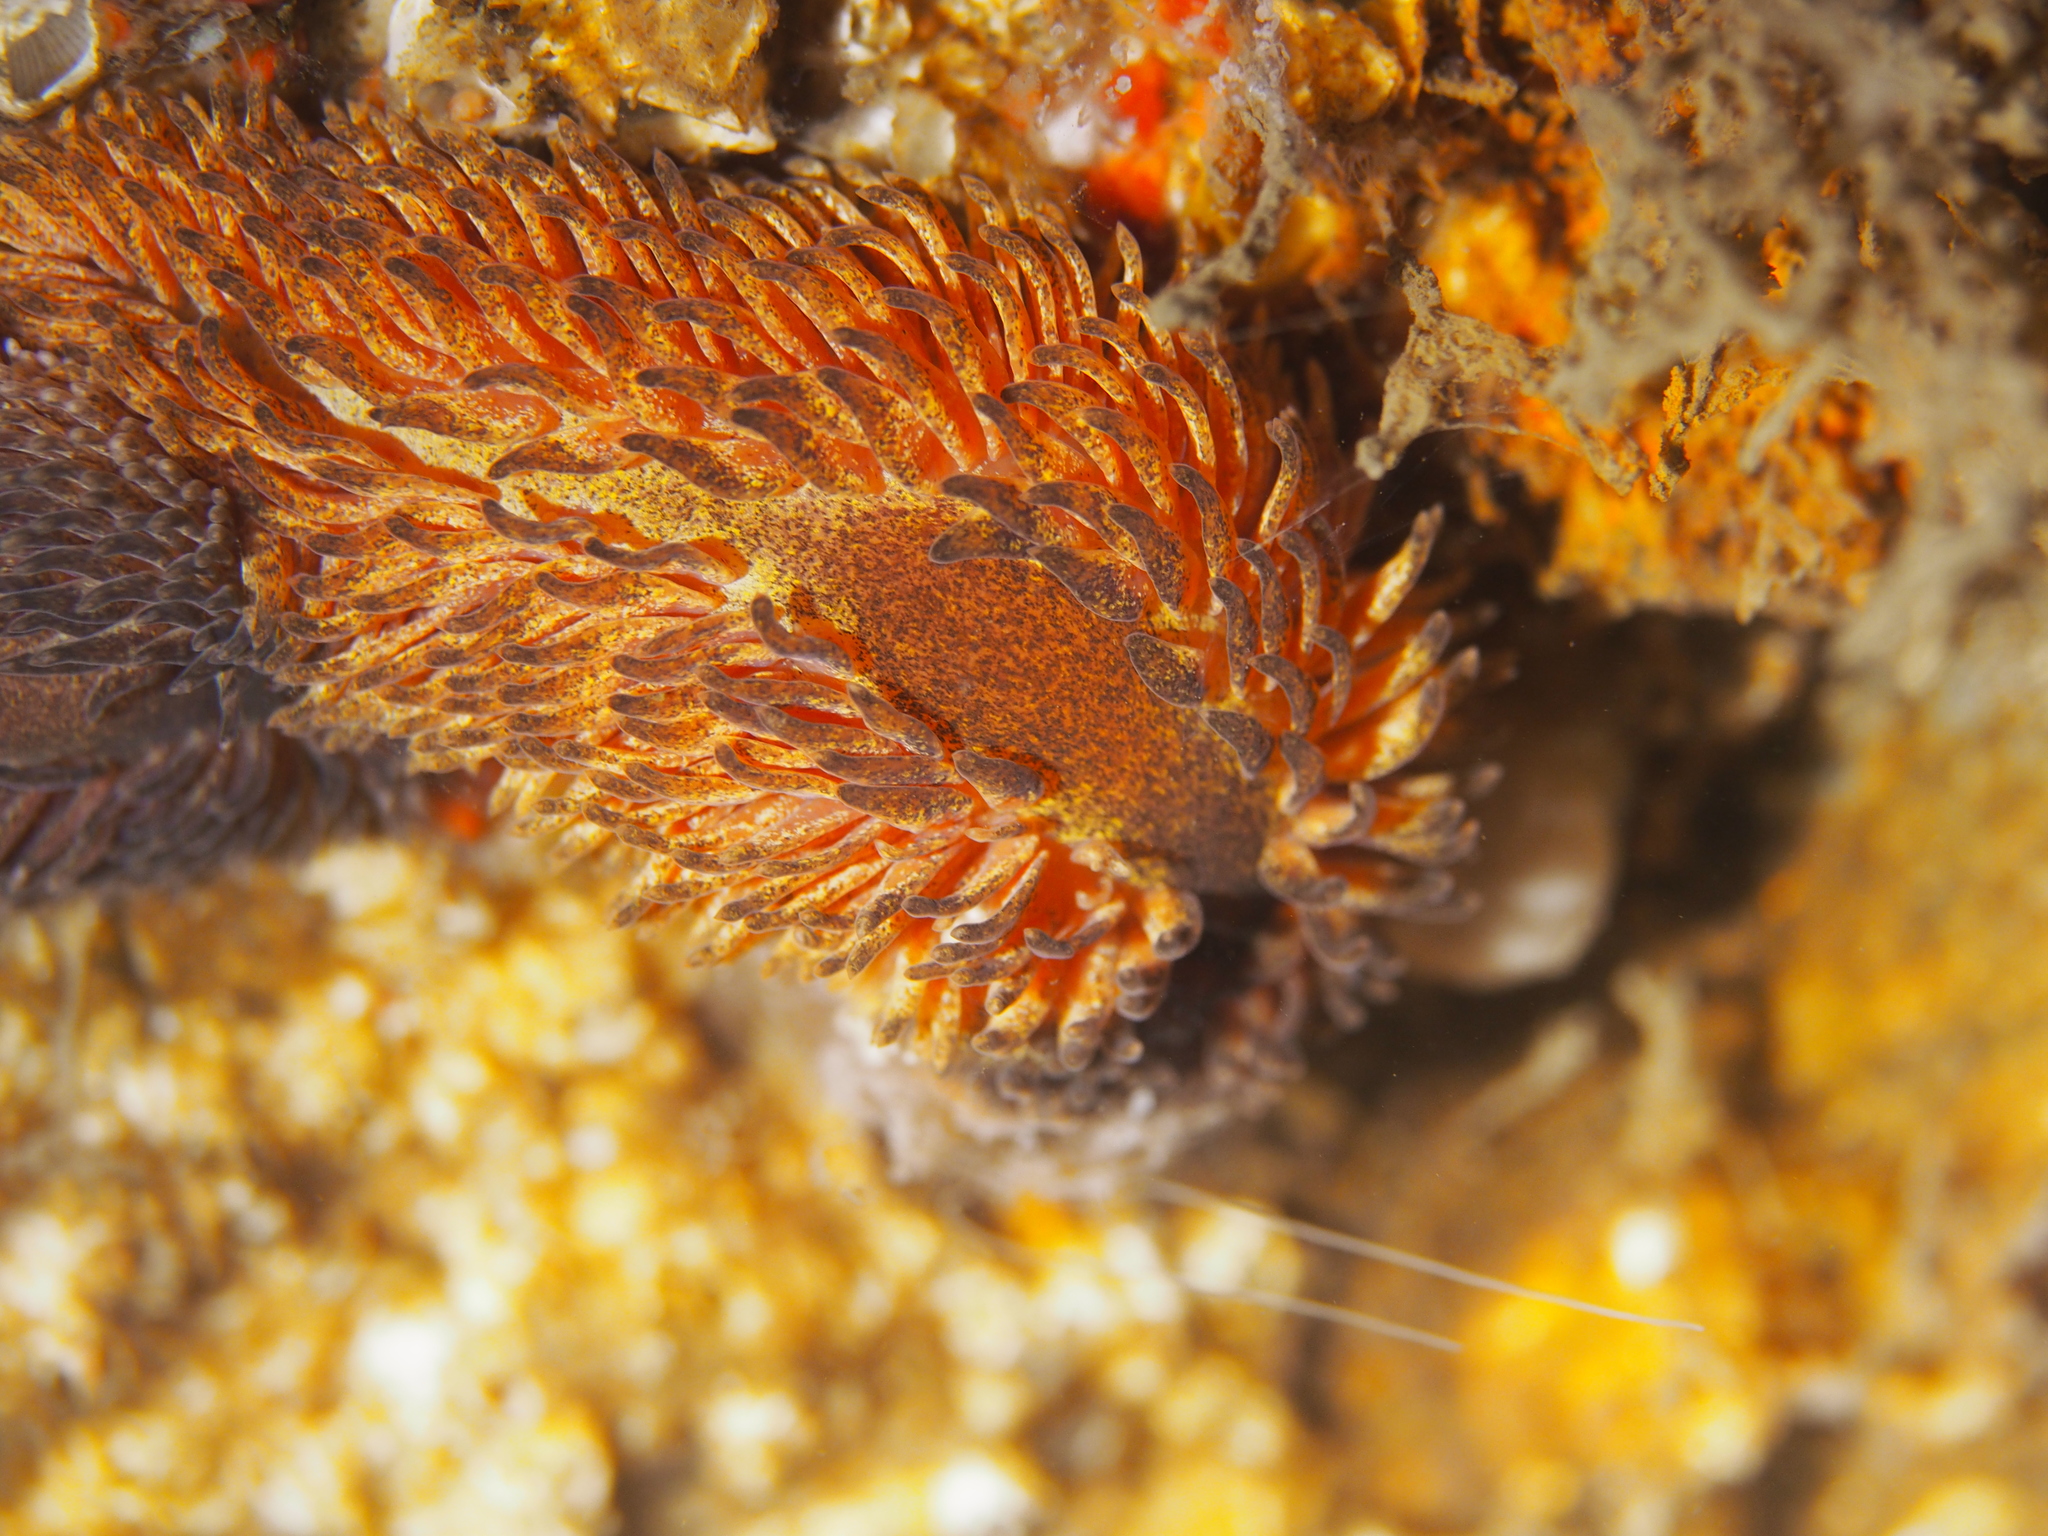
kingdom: Animalia
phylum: Mollusca
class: Gastropoda
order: Nudibranchia
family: Aeolidiidae
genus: Aeolidia
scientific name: Aeolidia papillosa
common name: Common grey sea slug
